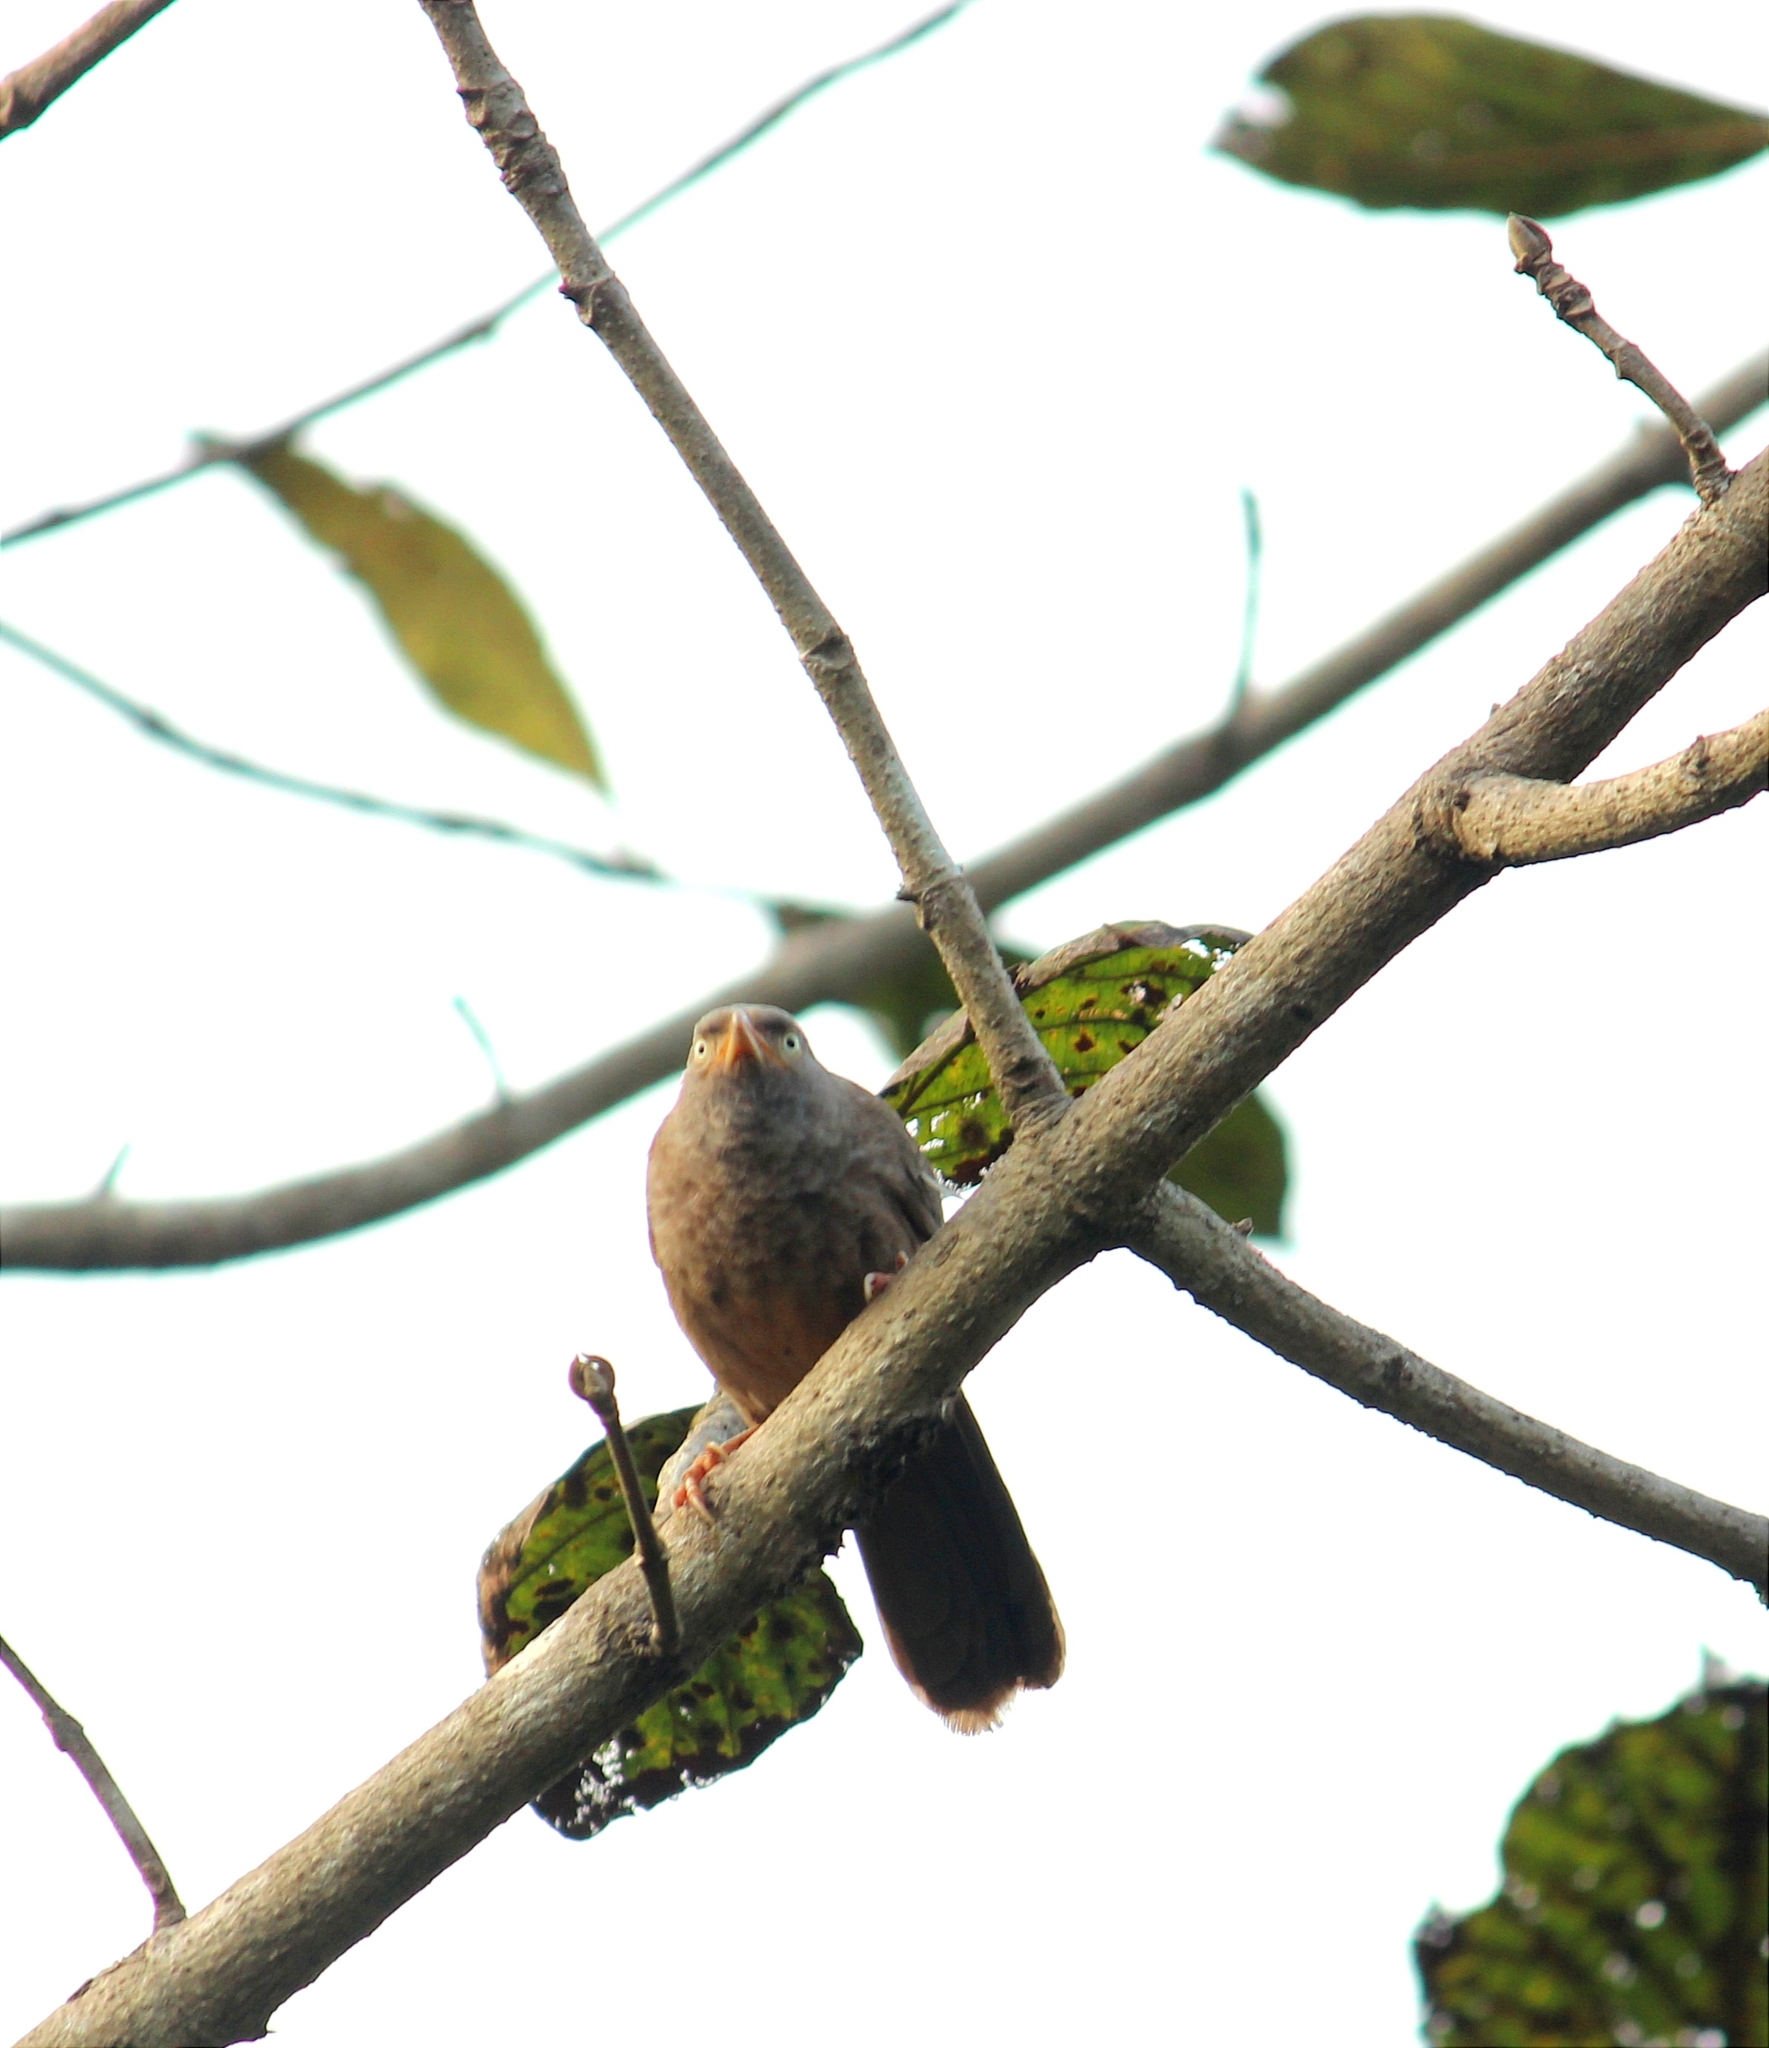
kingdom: Animalia
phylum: Chordata
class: Aves
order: Passeriformes
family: Leiothrichidae
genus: Turdoides
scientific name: Turdoides striata
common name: Jungle babbler
